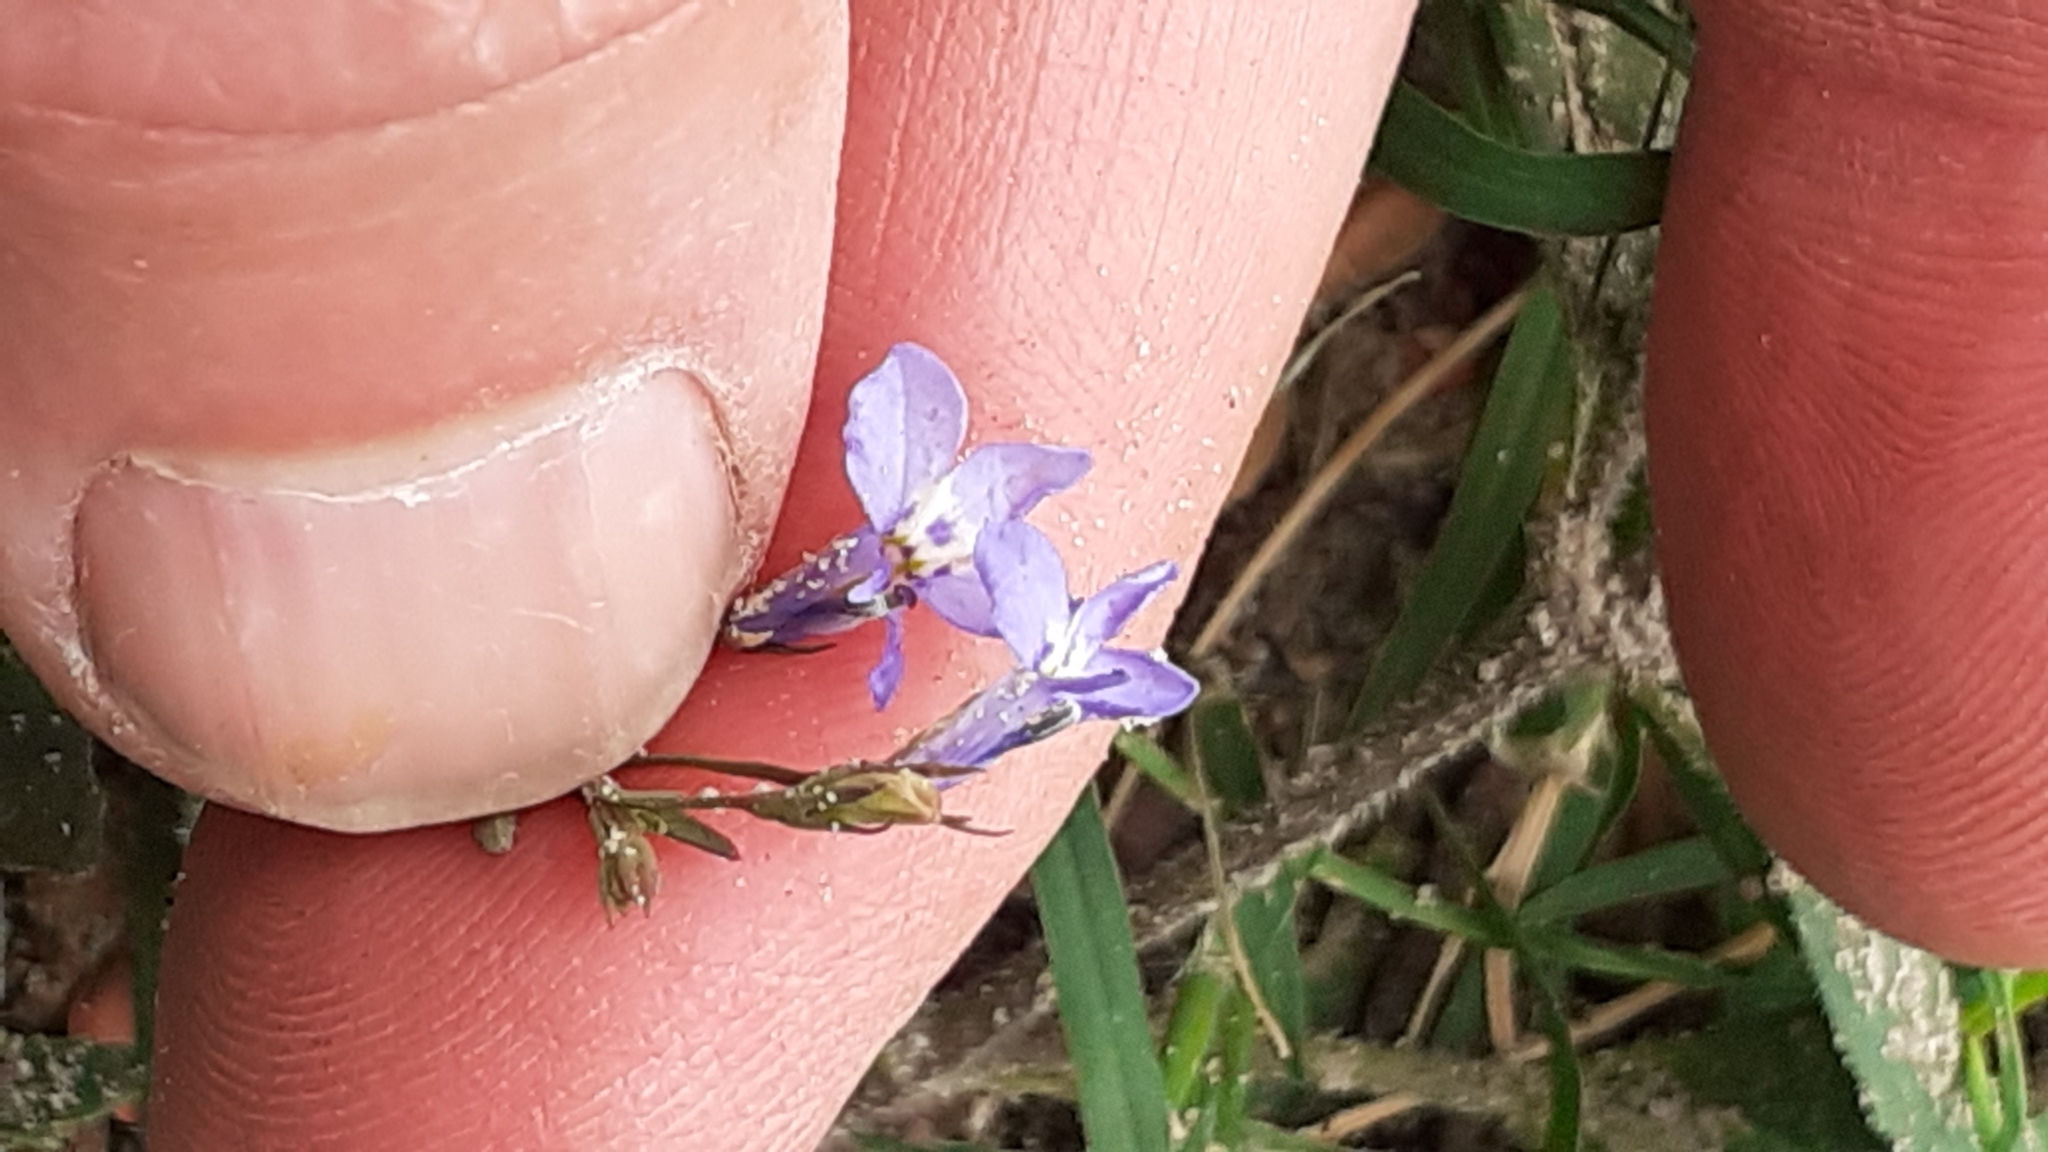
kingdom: Plantae
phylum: Tracheophyta
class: Magnoliopsida
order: Asterales
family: Campanulaceae
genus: Lobelia
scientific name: Lobelia erinus
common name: Edging lobelia
